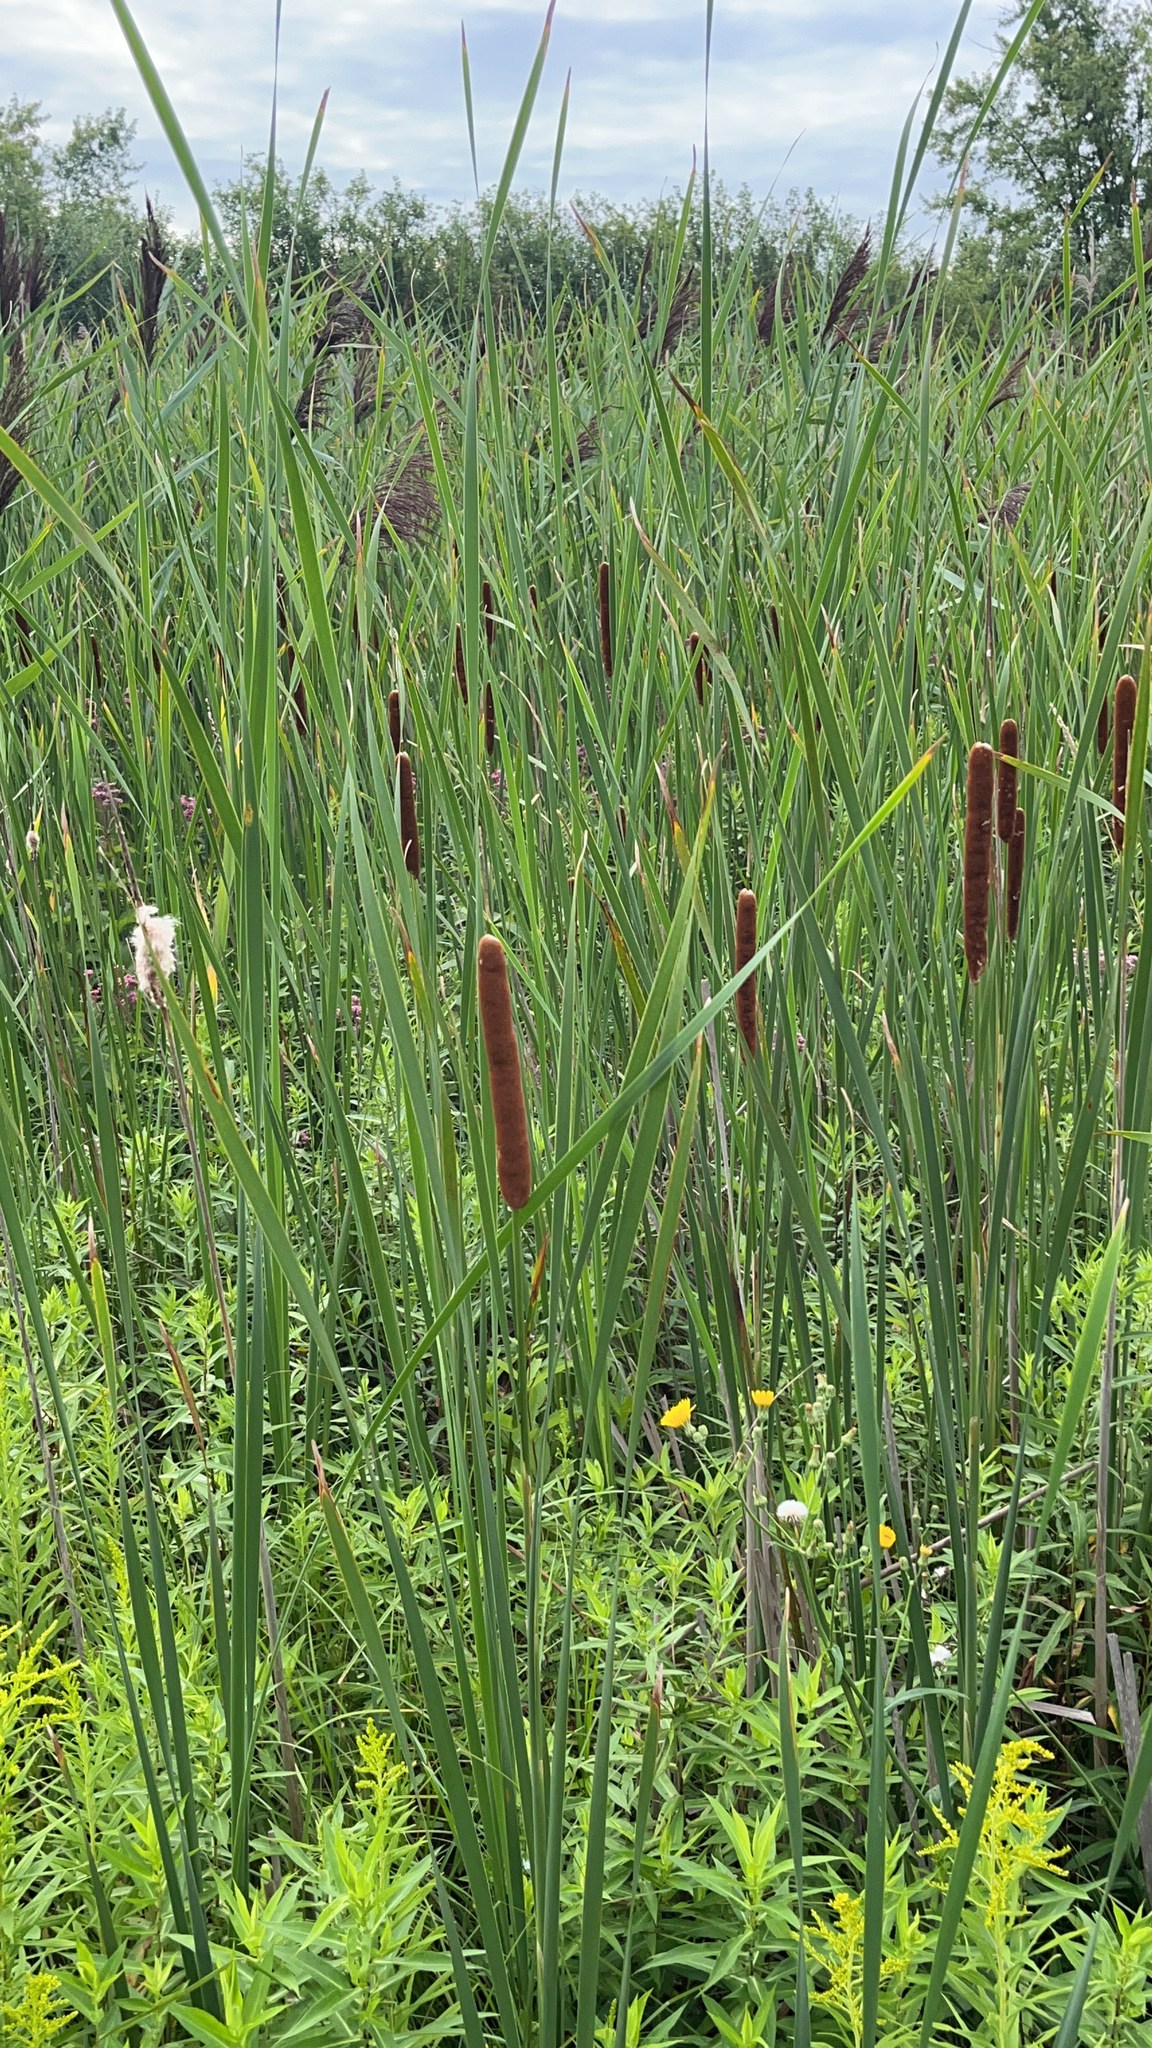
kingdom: Plantae
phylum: Tracheophyta
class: Liliopsida
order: Poales
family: Typhaceae
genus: Typha
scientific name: Typha angustifolia
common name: Lesser bulrush
